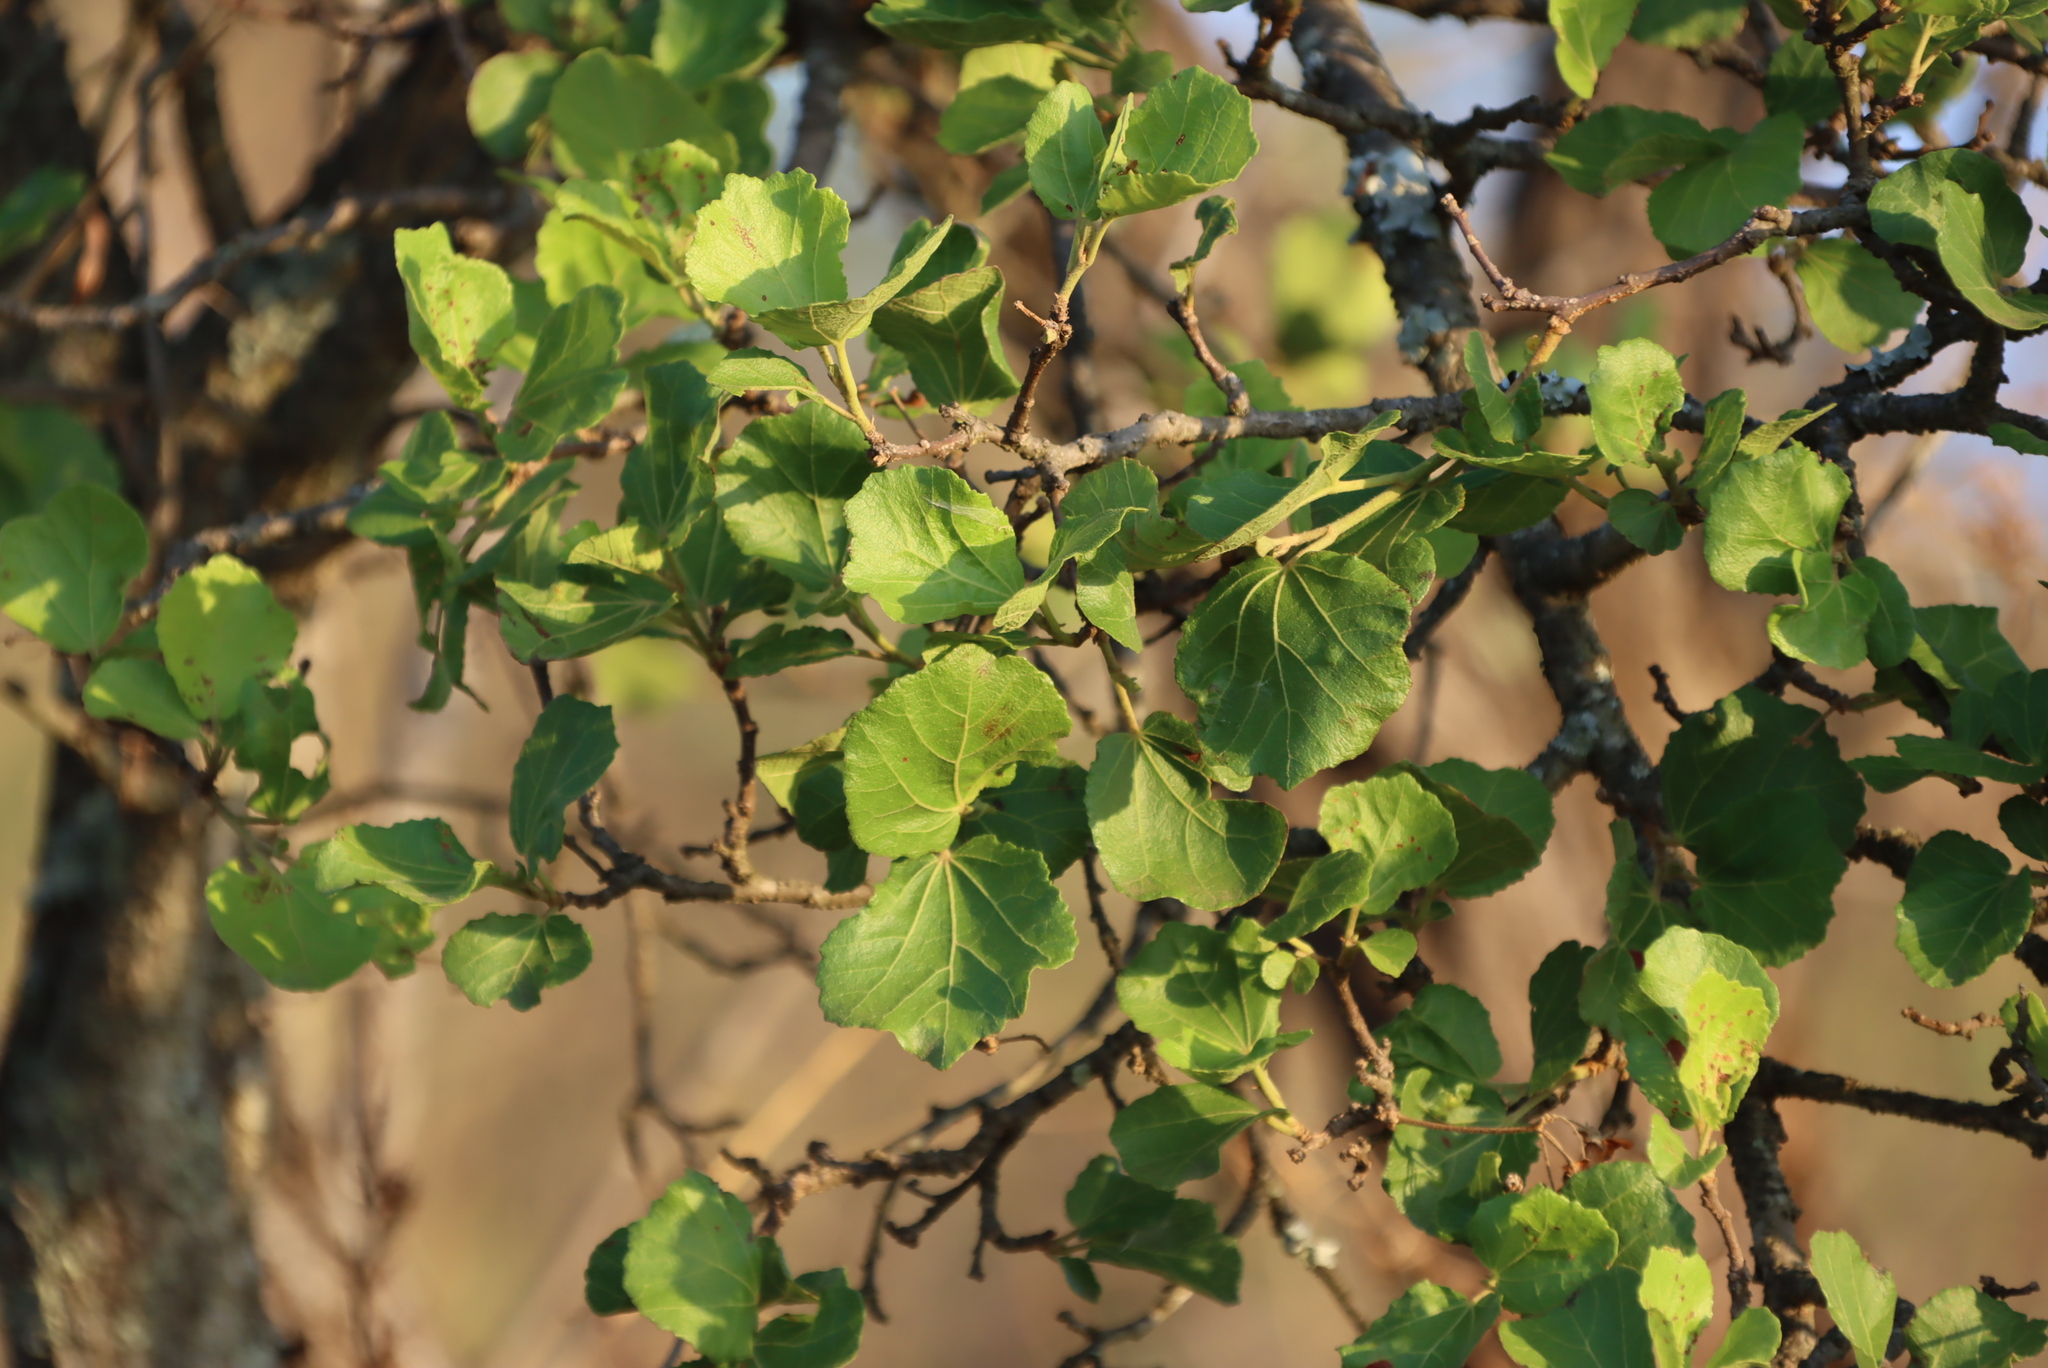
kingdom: Plantae
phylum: Tracheophyta
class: Magnoliopsida
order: Malvales
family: Malvaceae
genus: Dombeya
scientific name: Dombeya rotundifolia
